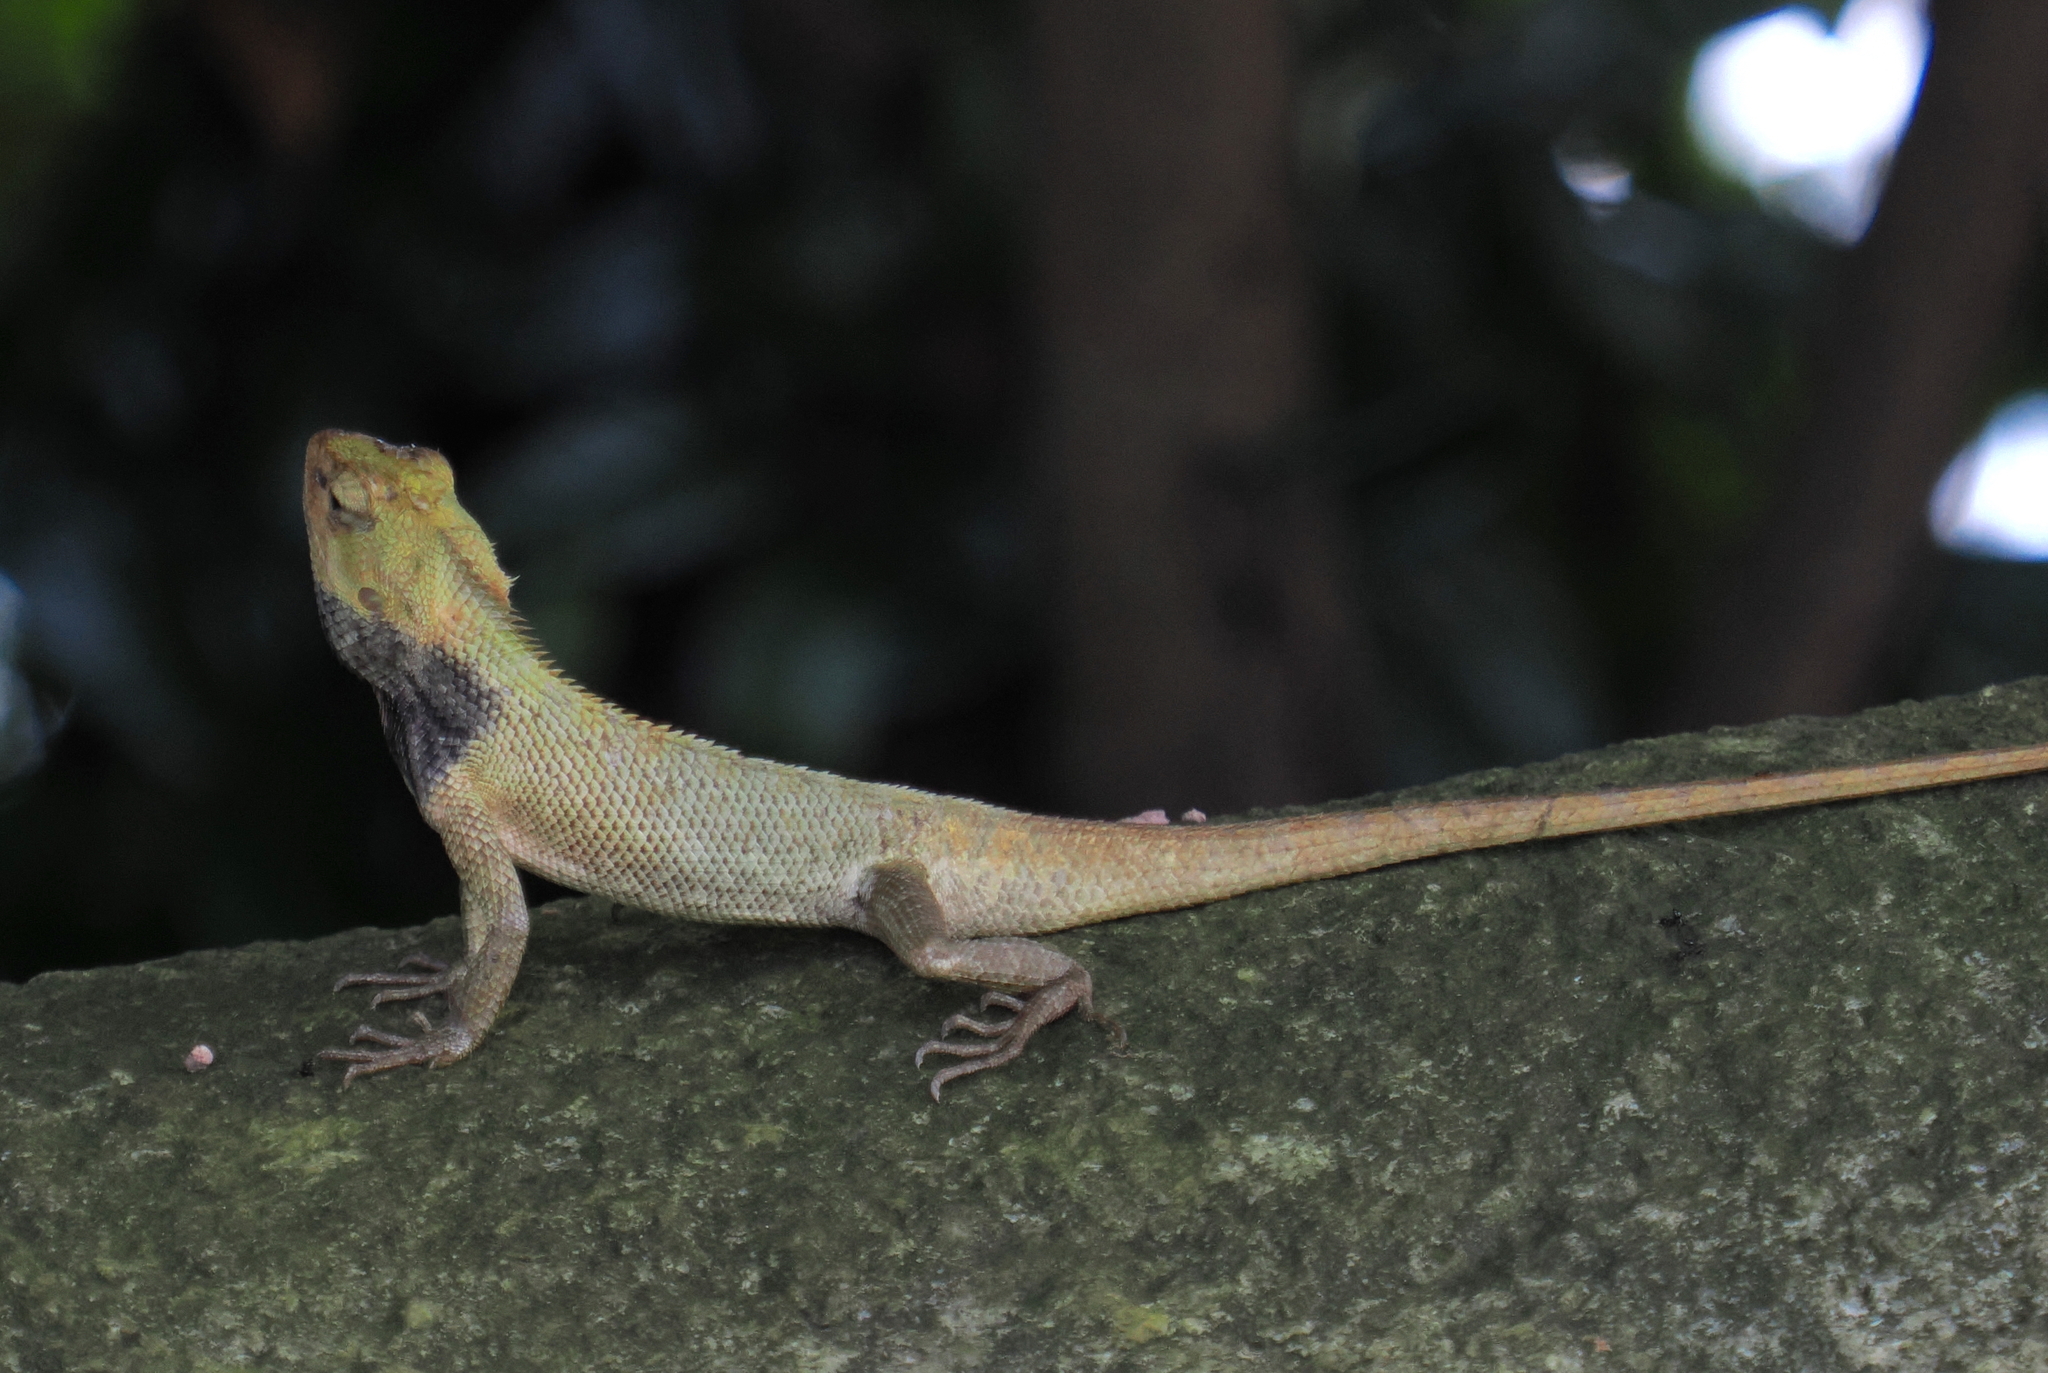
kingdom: Animalia
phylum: Chordata
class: Squamata
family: Agamidae
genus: Calotes
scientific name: Calotes versicolor
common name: Oriental garden lizard
